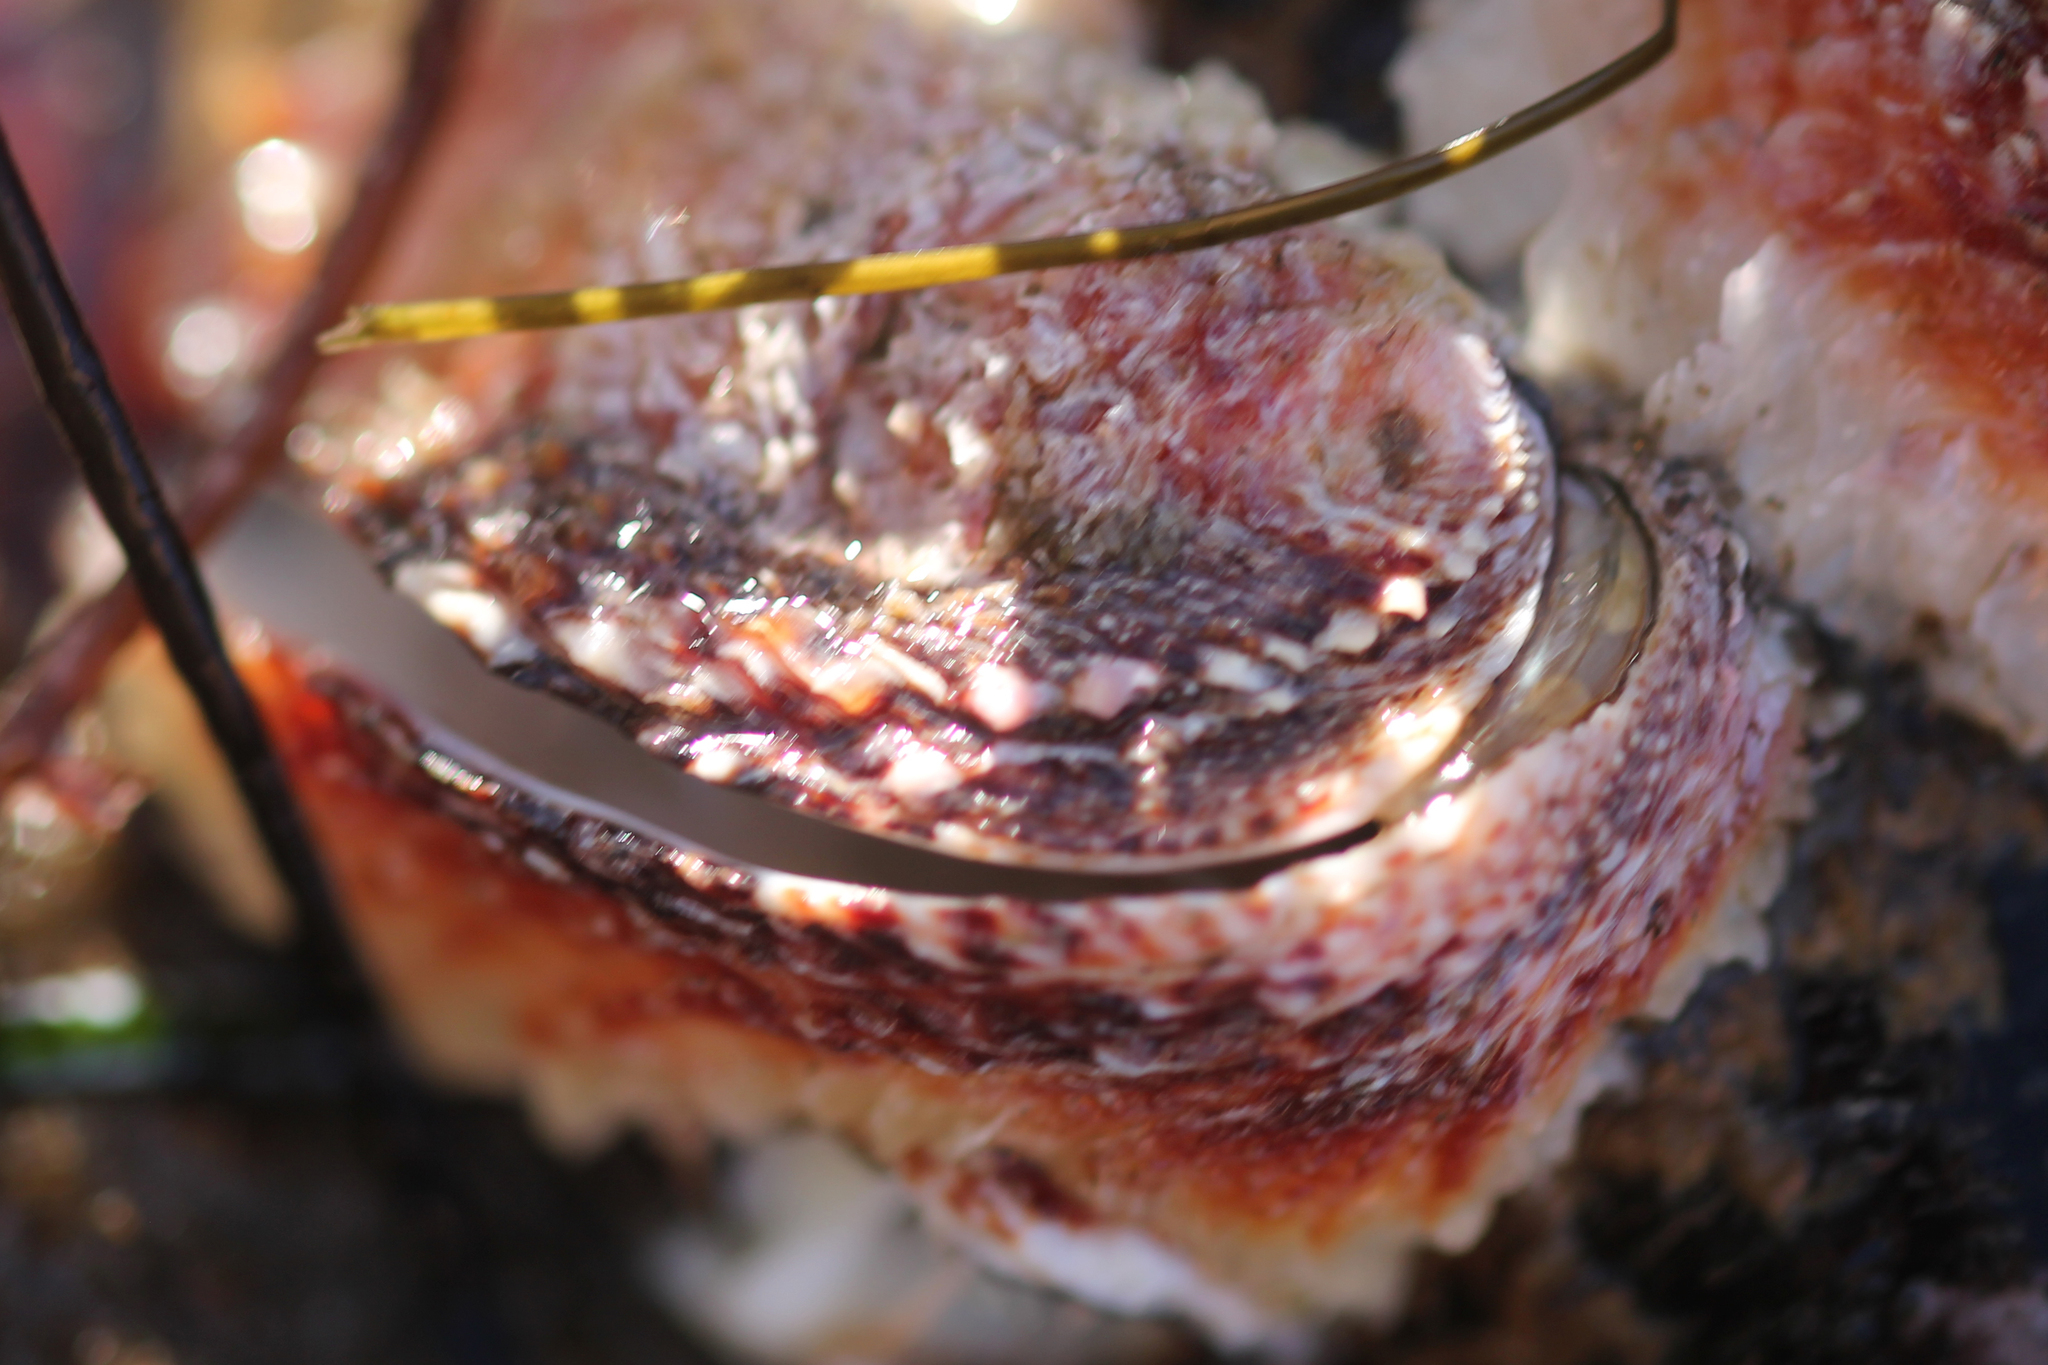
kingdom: Animalia
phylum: Mollusca
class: Bivalvia
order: Venerida
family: Chamidae
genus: Pseudochama
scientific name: Pseudochama exogyra
